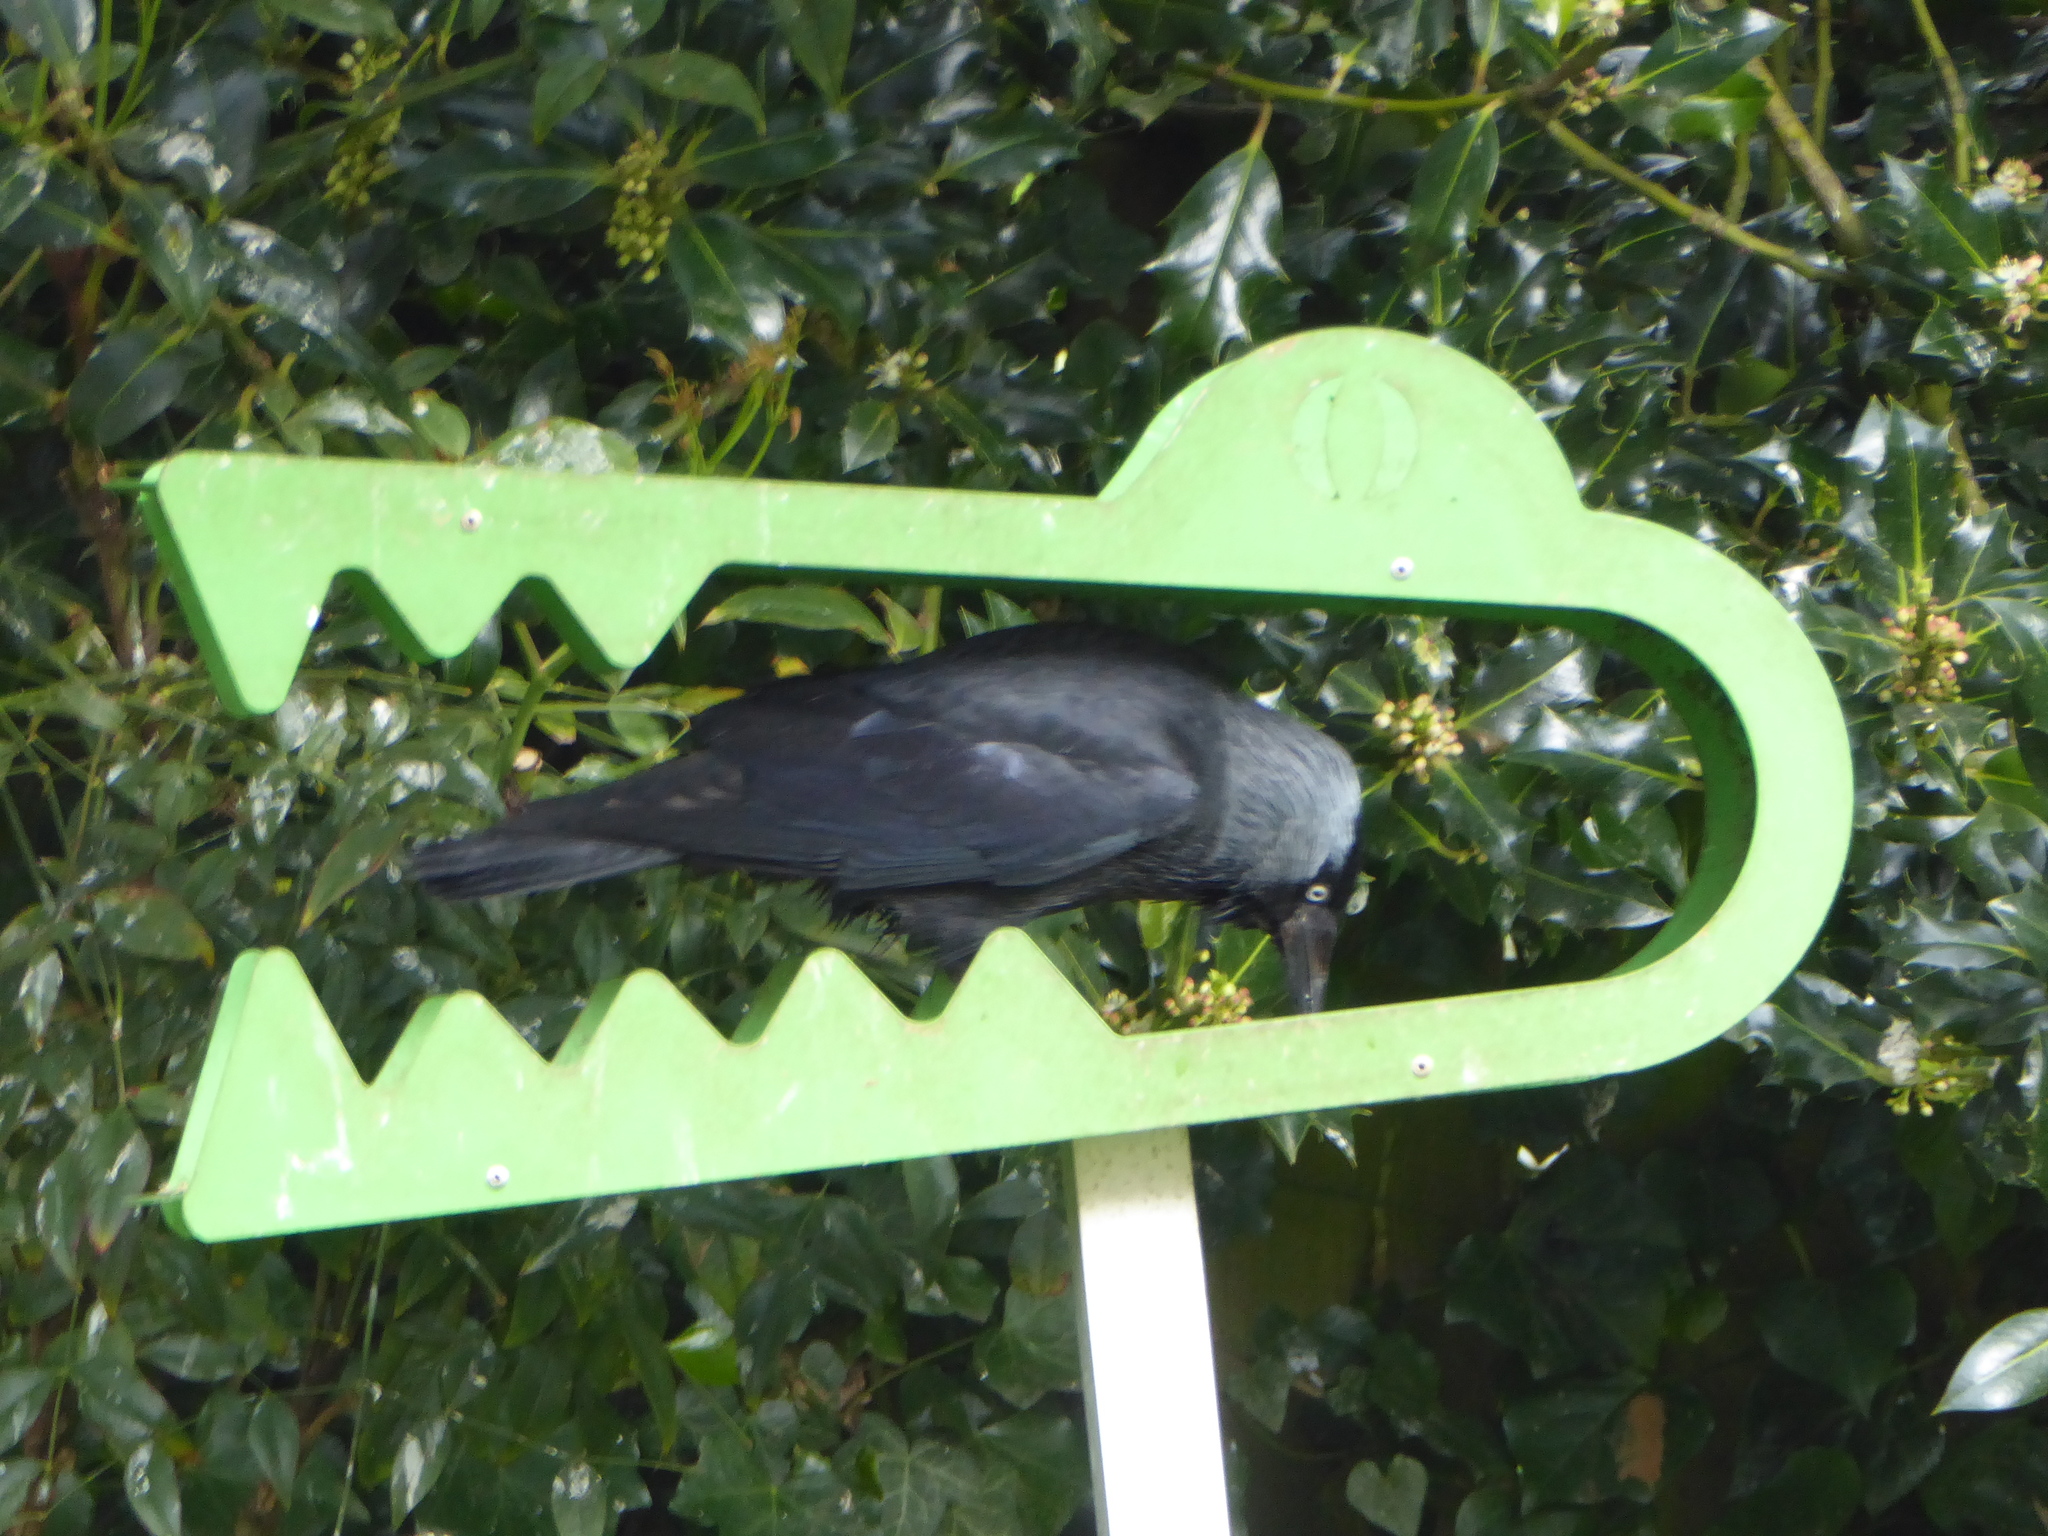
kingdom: Animalia
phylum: Chordata
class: Aves
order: Passeriformes
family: Corvidae
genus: Coloeus
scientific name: Coloeus monedula
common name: Western jackdaw
